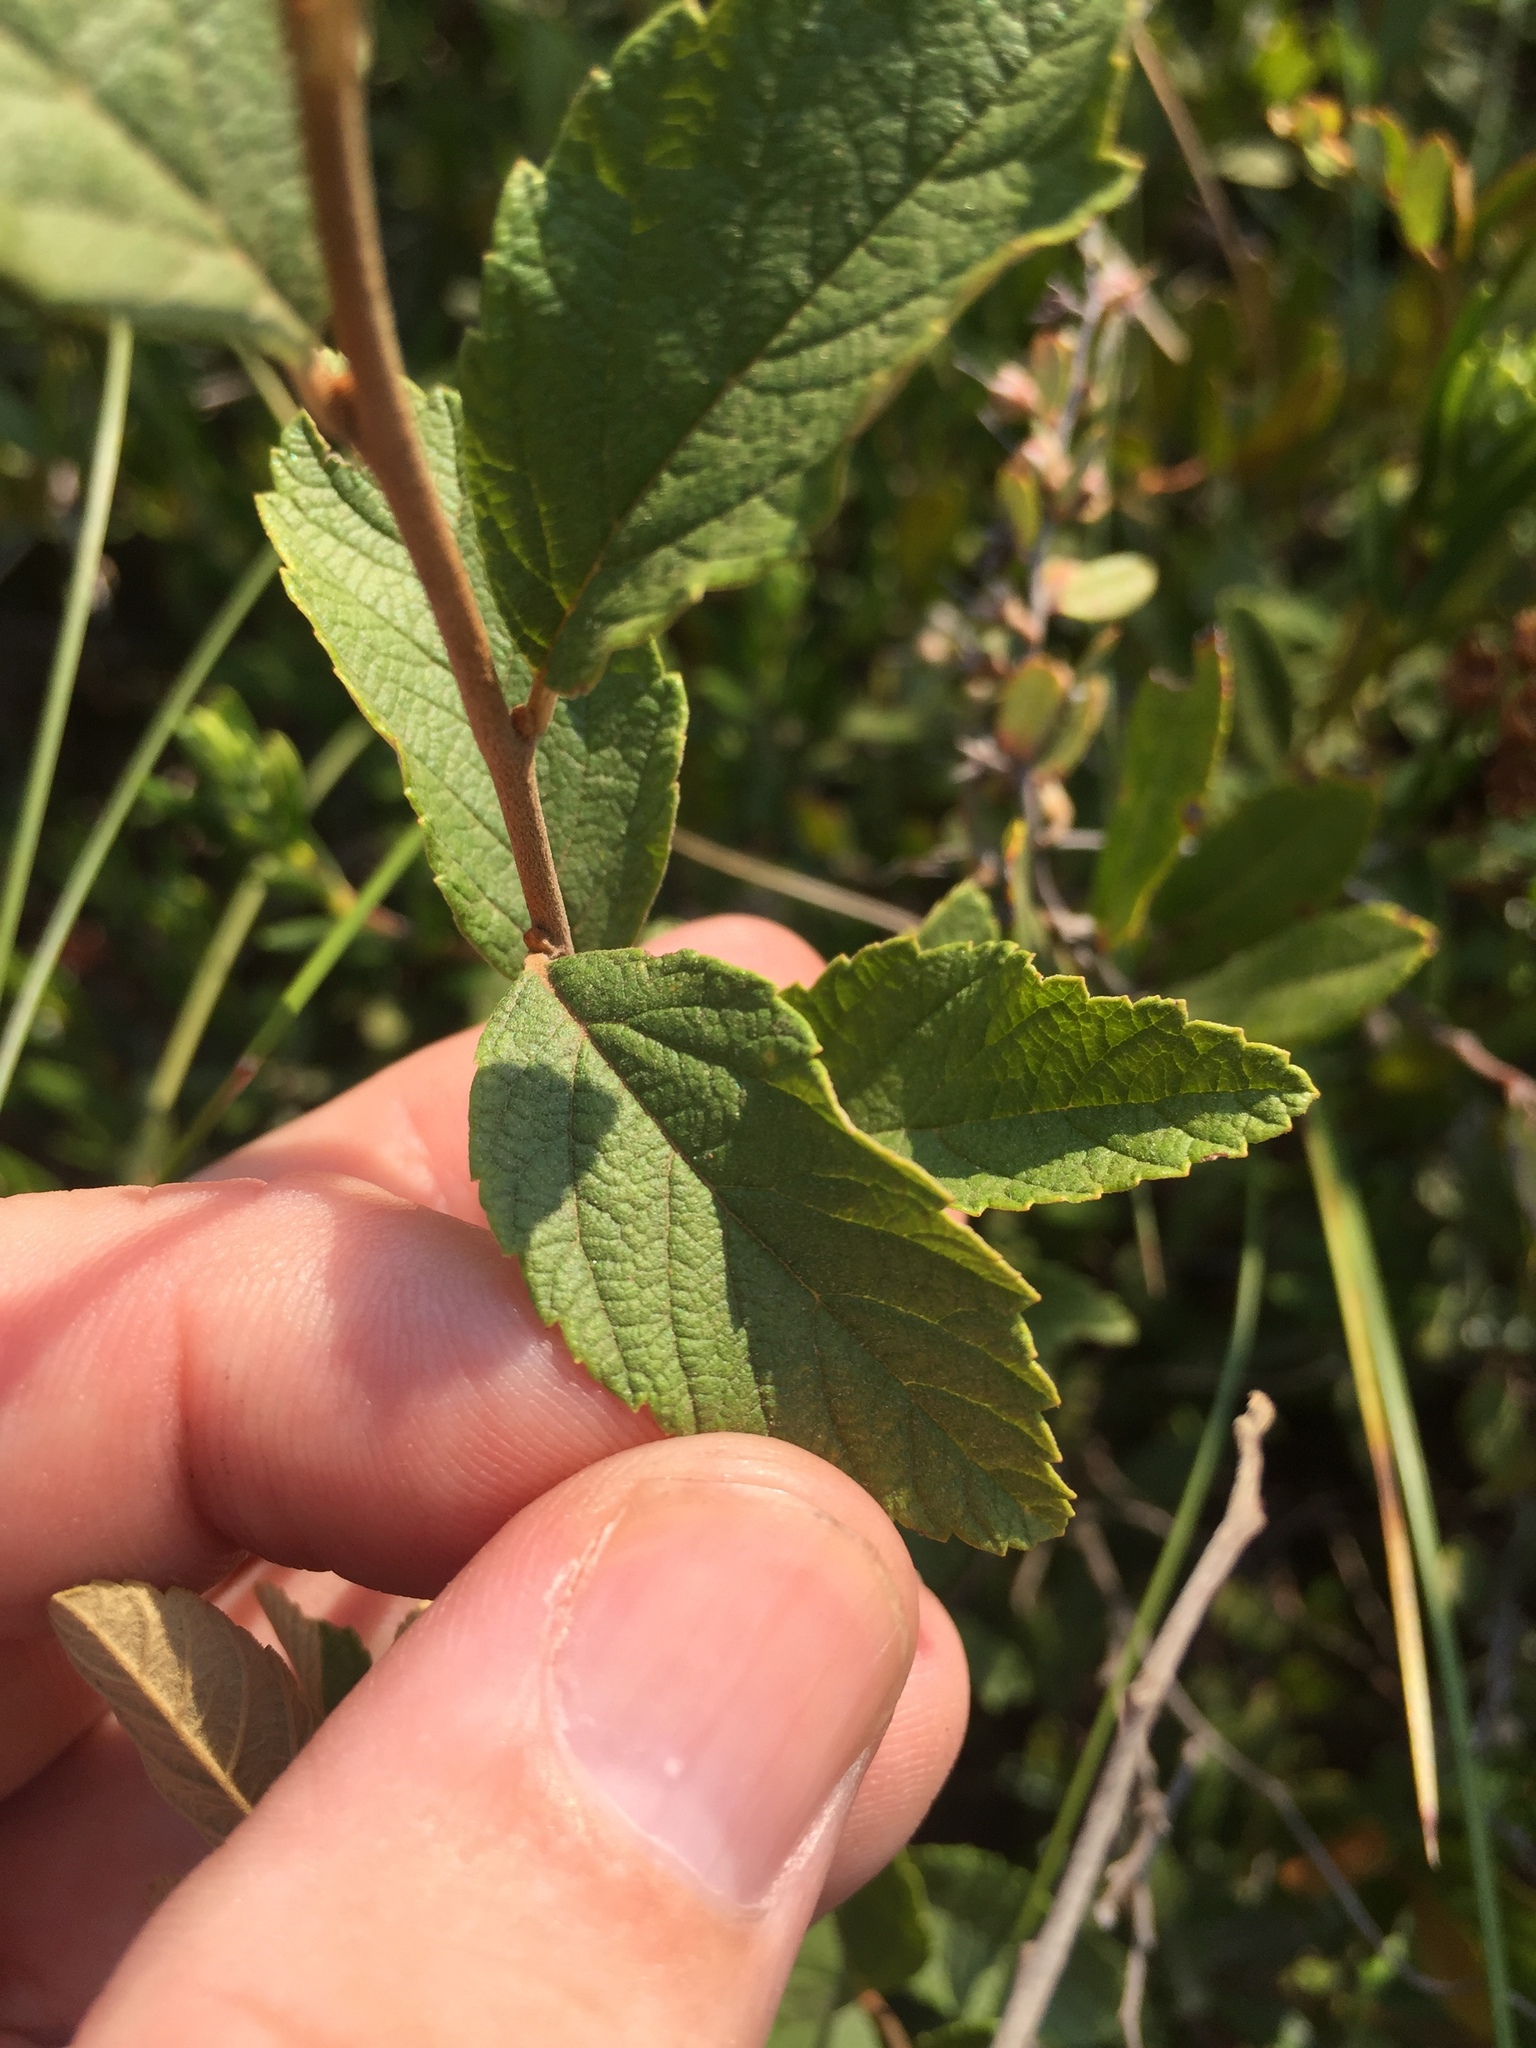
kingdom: Plantae
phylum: Tracheophyta
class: Magnoliopsida
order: Rosales
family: Rosaceae
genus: Spiraea
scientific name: Spiraea tomentosa
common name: Hardhack
